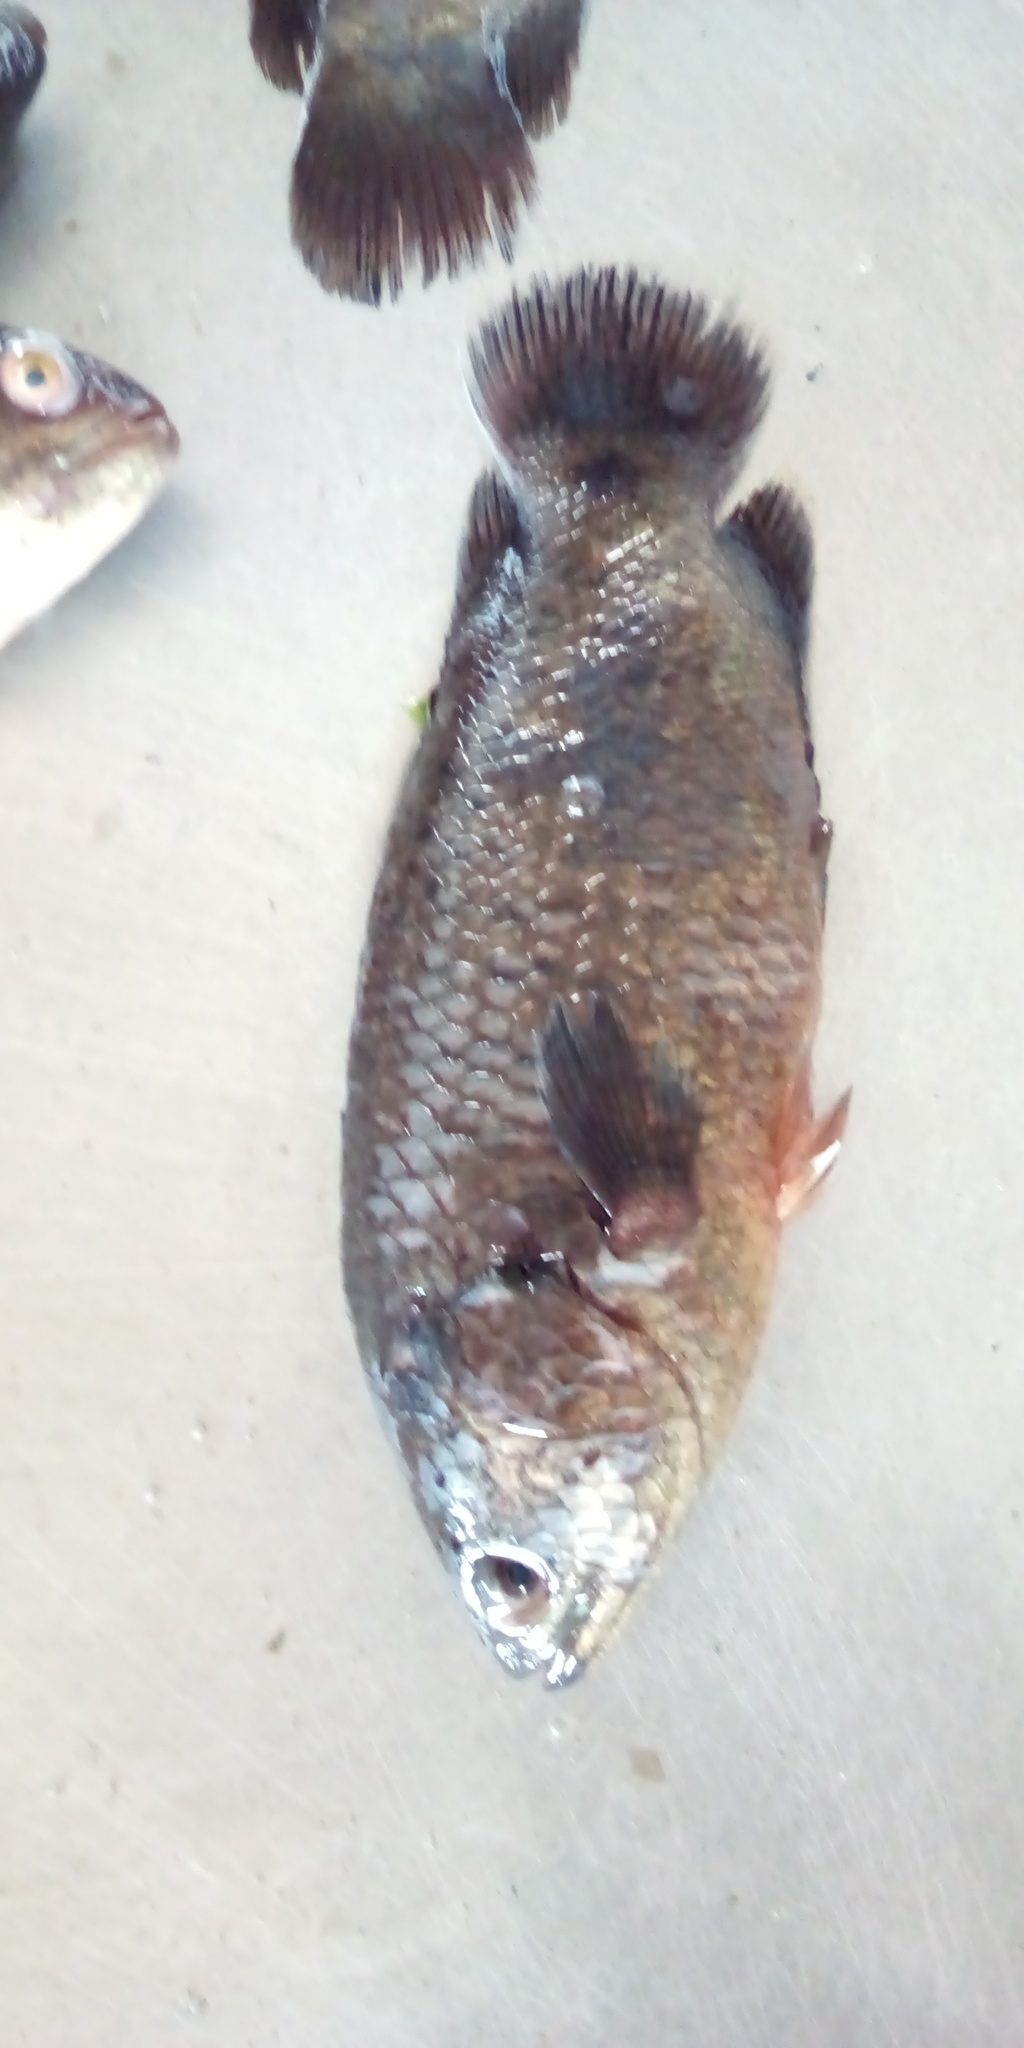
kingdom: Animalia
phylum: Chordata
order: Perciformes
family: Anabantidae
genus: Anabas
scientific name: Anabas testudineus
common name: Climbing perch
